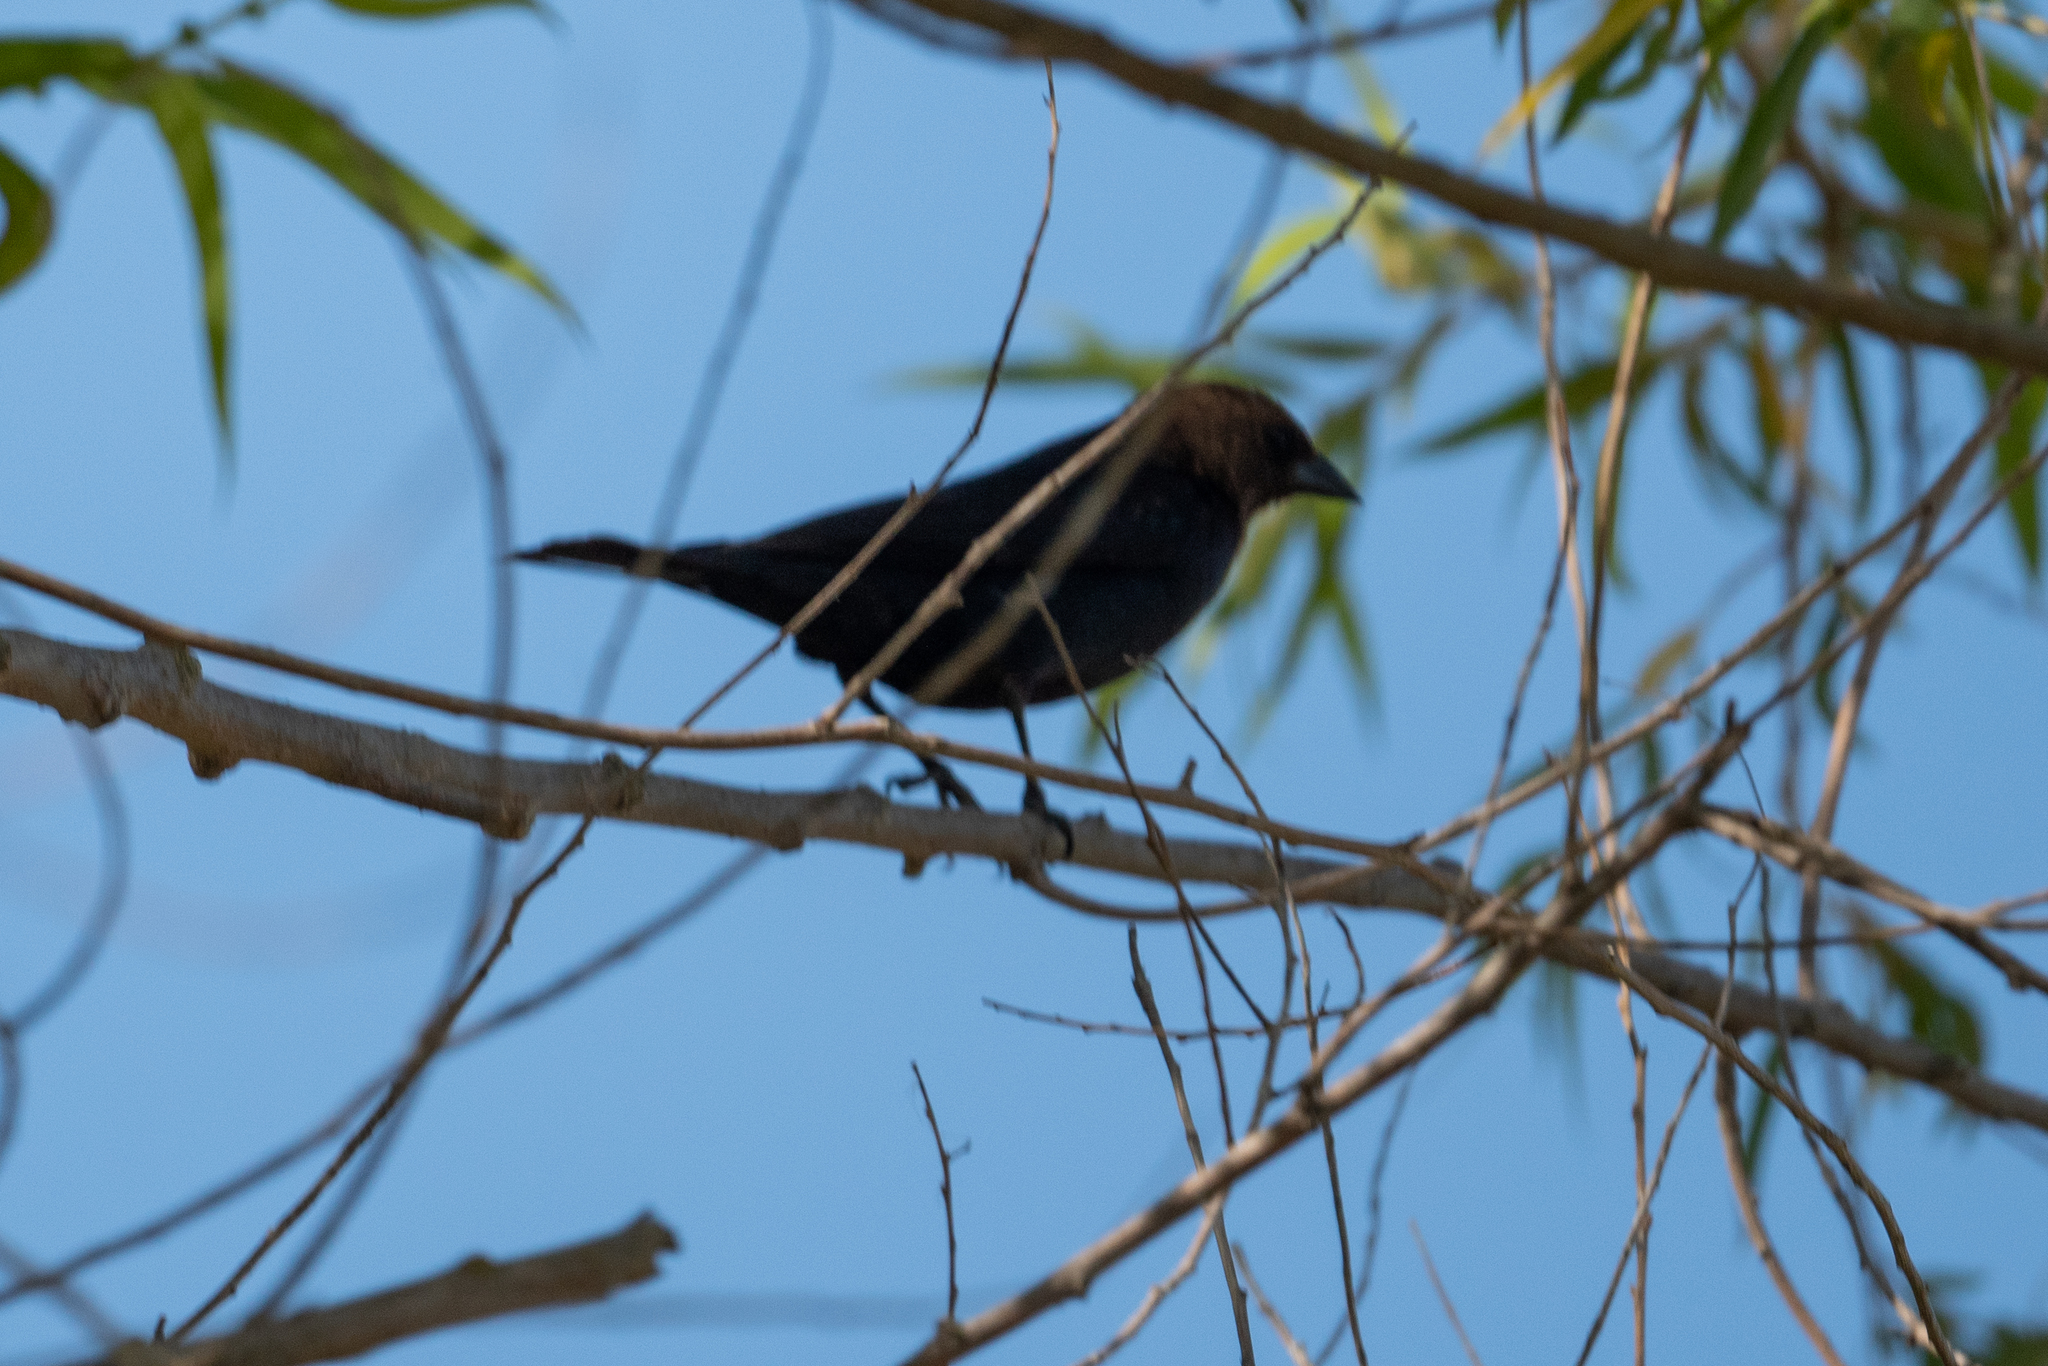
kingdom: Animalia
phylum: Chordata
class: Aves
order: Passeriformes
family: Icteridae
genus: Molothrus
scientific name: Molothrus ater
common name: Brown-headed cowbird
